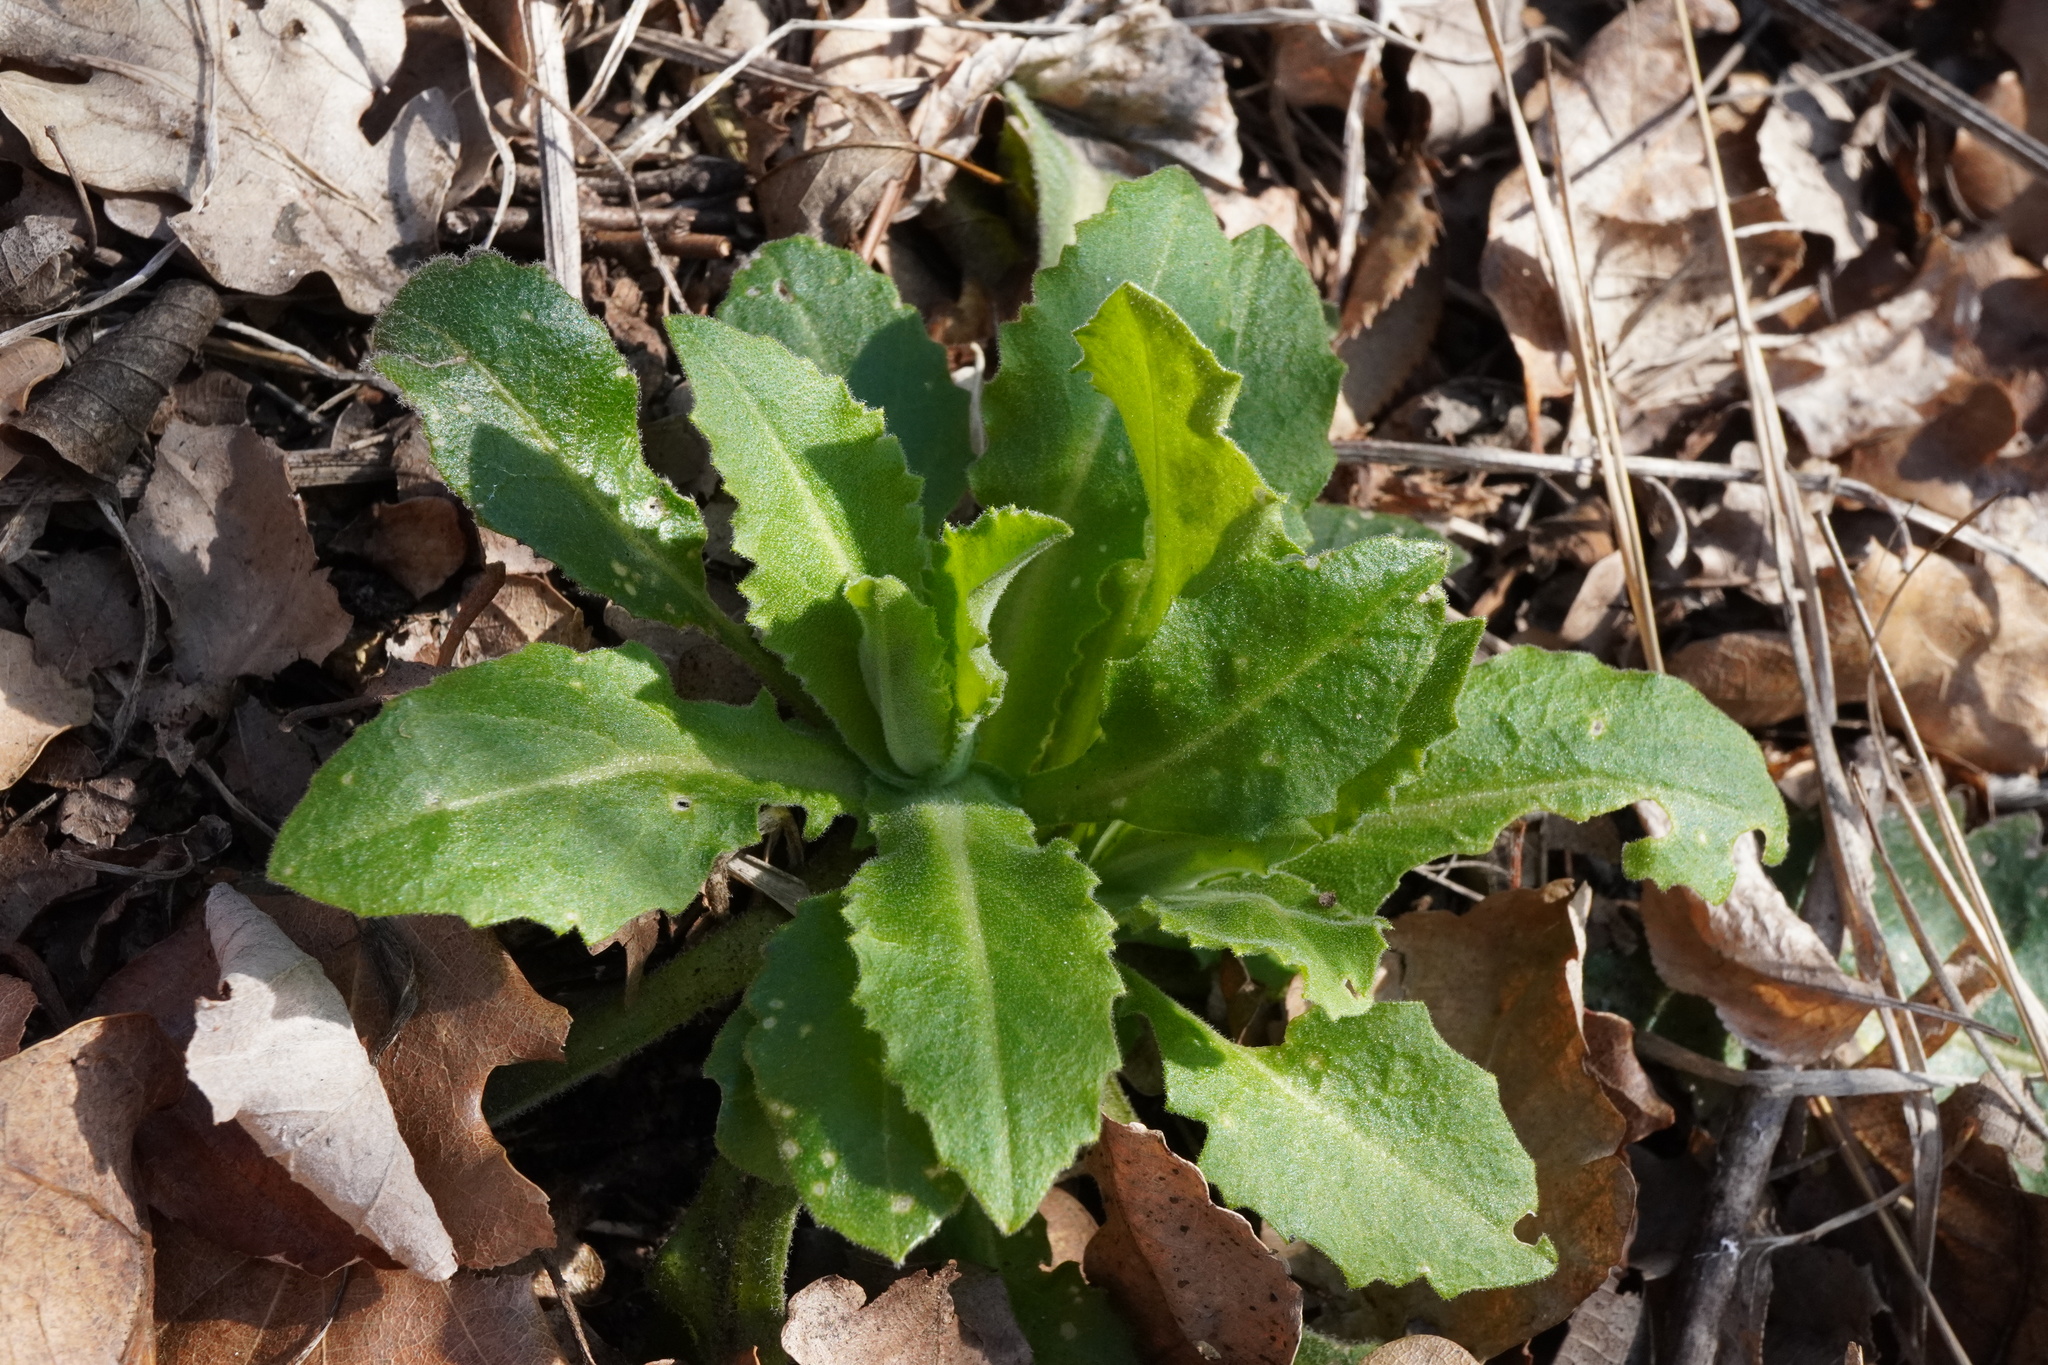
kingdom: Plantae
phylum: Tracheophyta
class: Magnoliopsida
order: Brassicales
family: Brassicaceae
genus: Pseudoturritis
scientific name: Pseudoturritis turrita
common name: Tower cress
